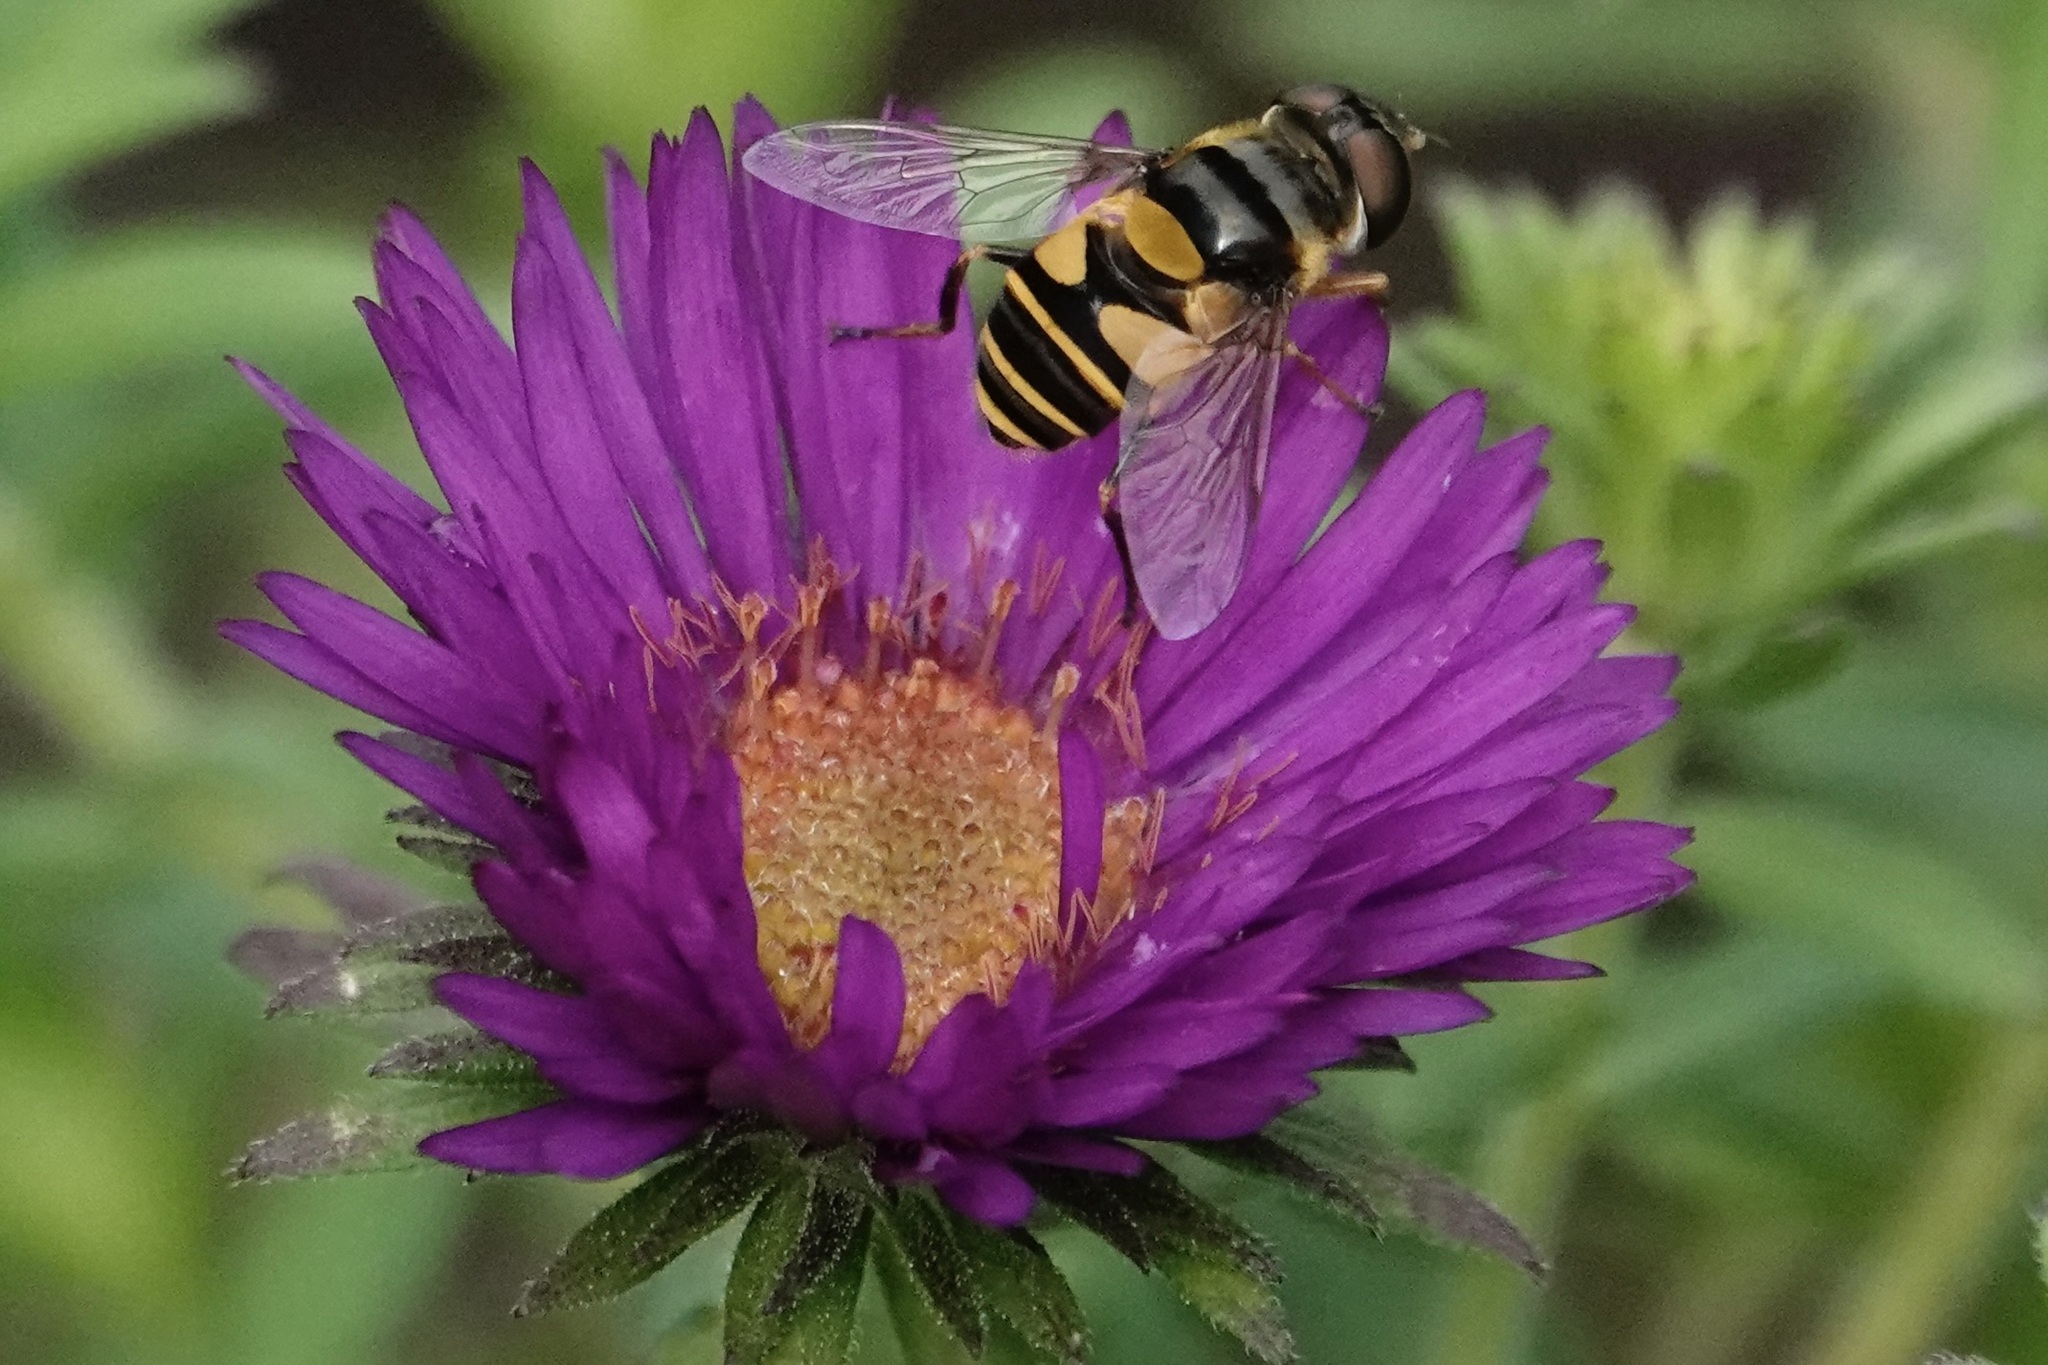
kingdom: Animalia
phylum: Arthropoda
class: Insecta
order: Diptera
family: Syrphidae
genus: Eristalis
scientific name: Eristalis transversa
